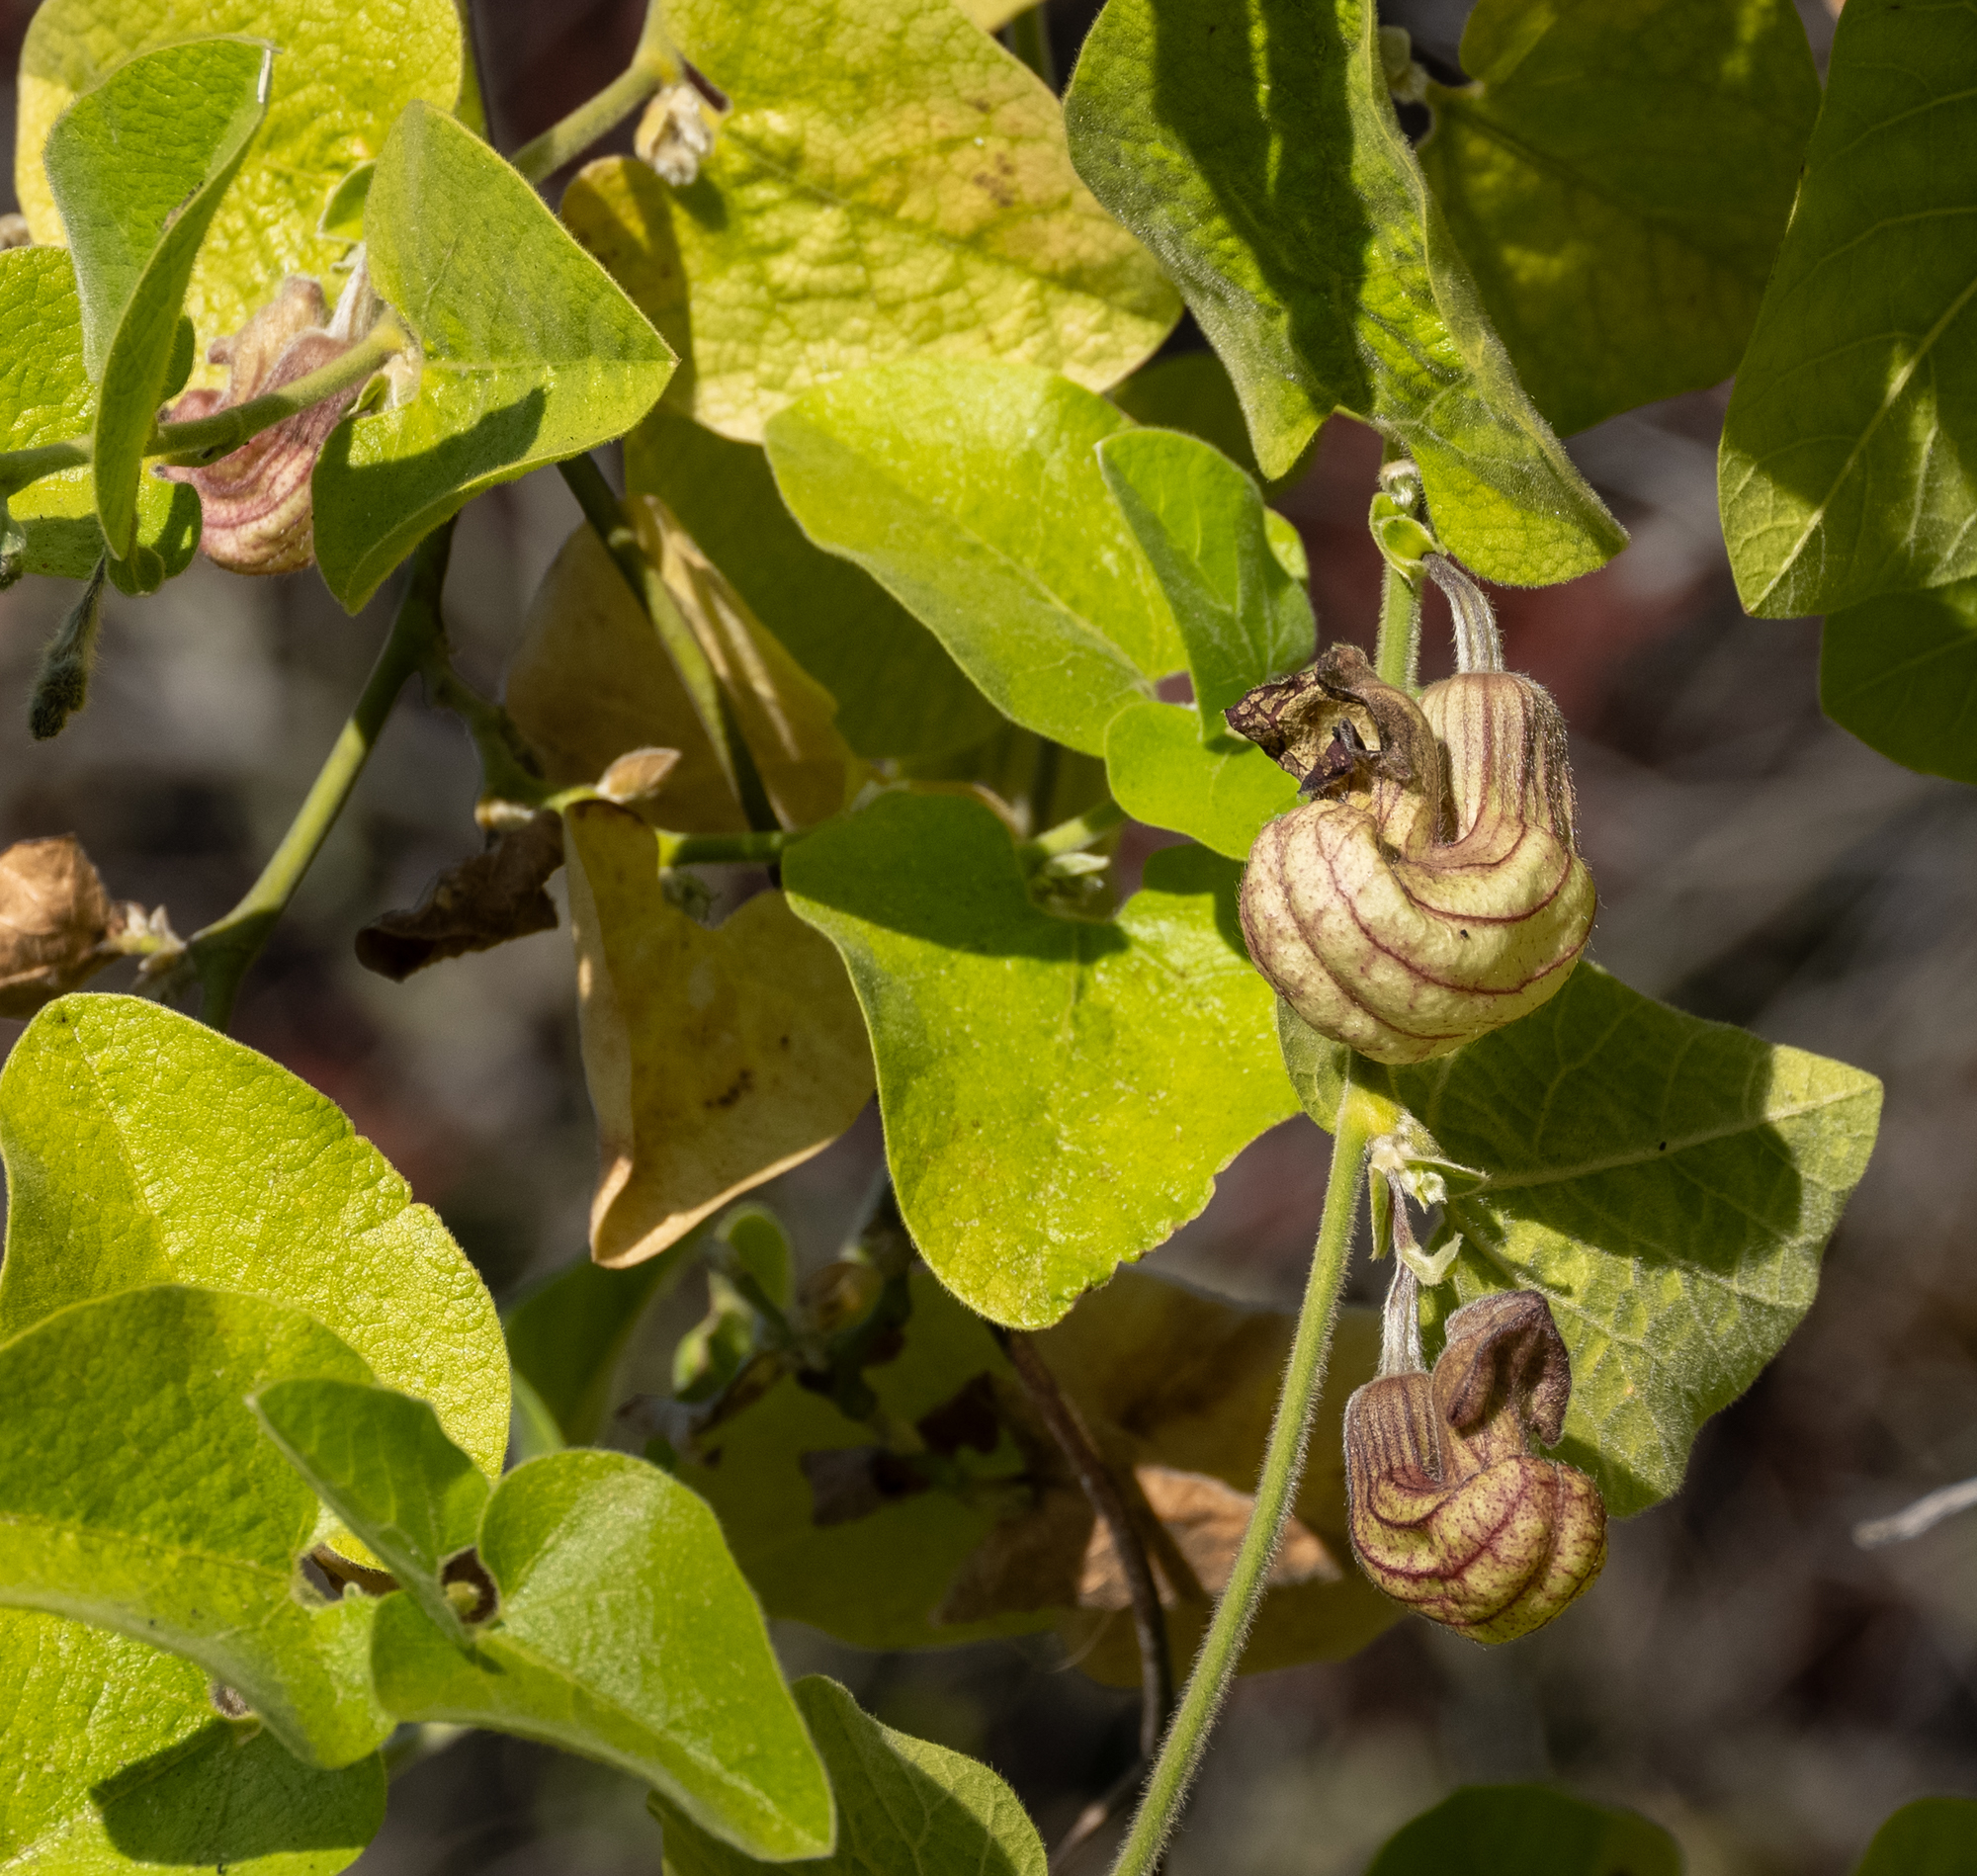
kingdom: Plantae
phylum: Tracheophyta
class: Magnoliopsida
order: Piperales
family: Aristolochiaceae
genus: Isotrema
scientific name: Isotrema californicum
